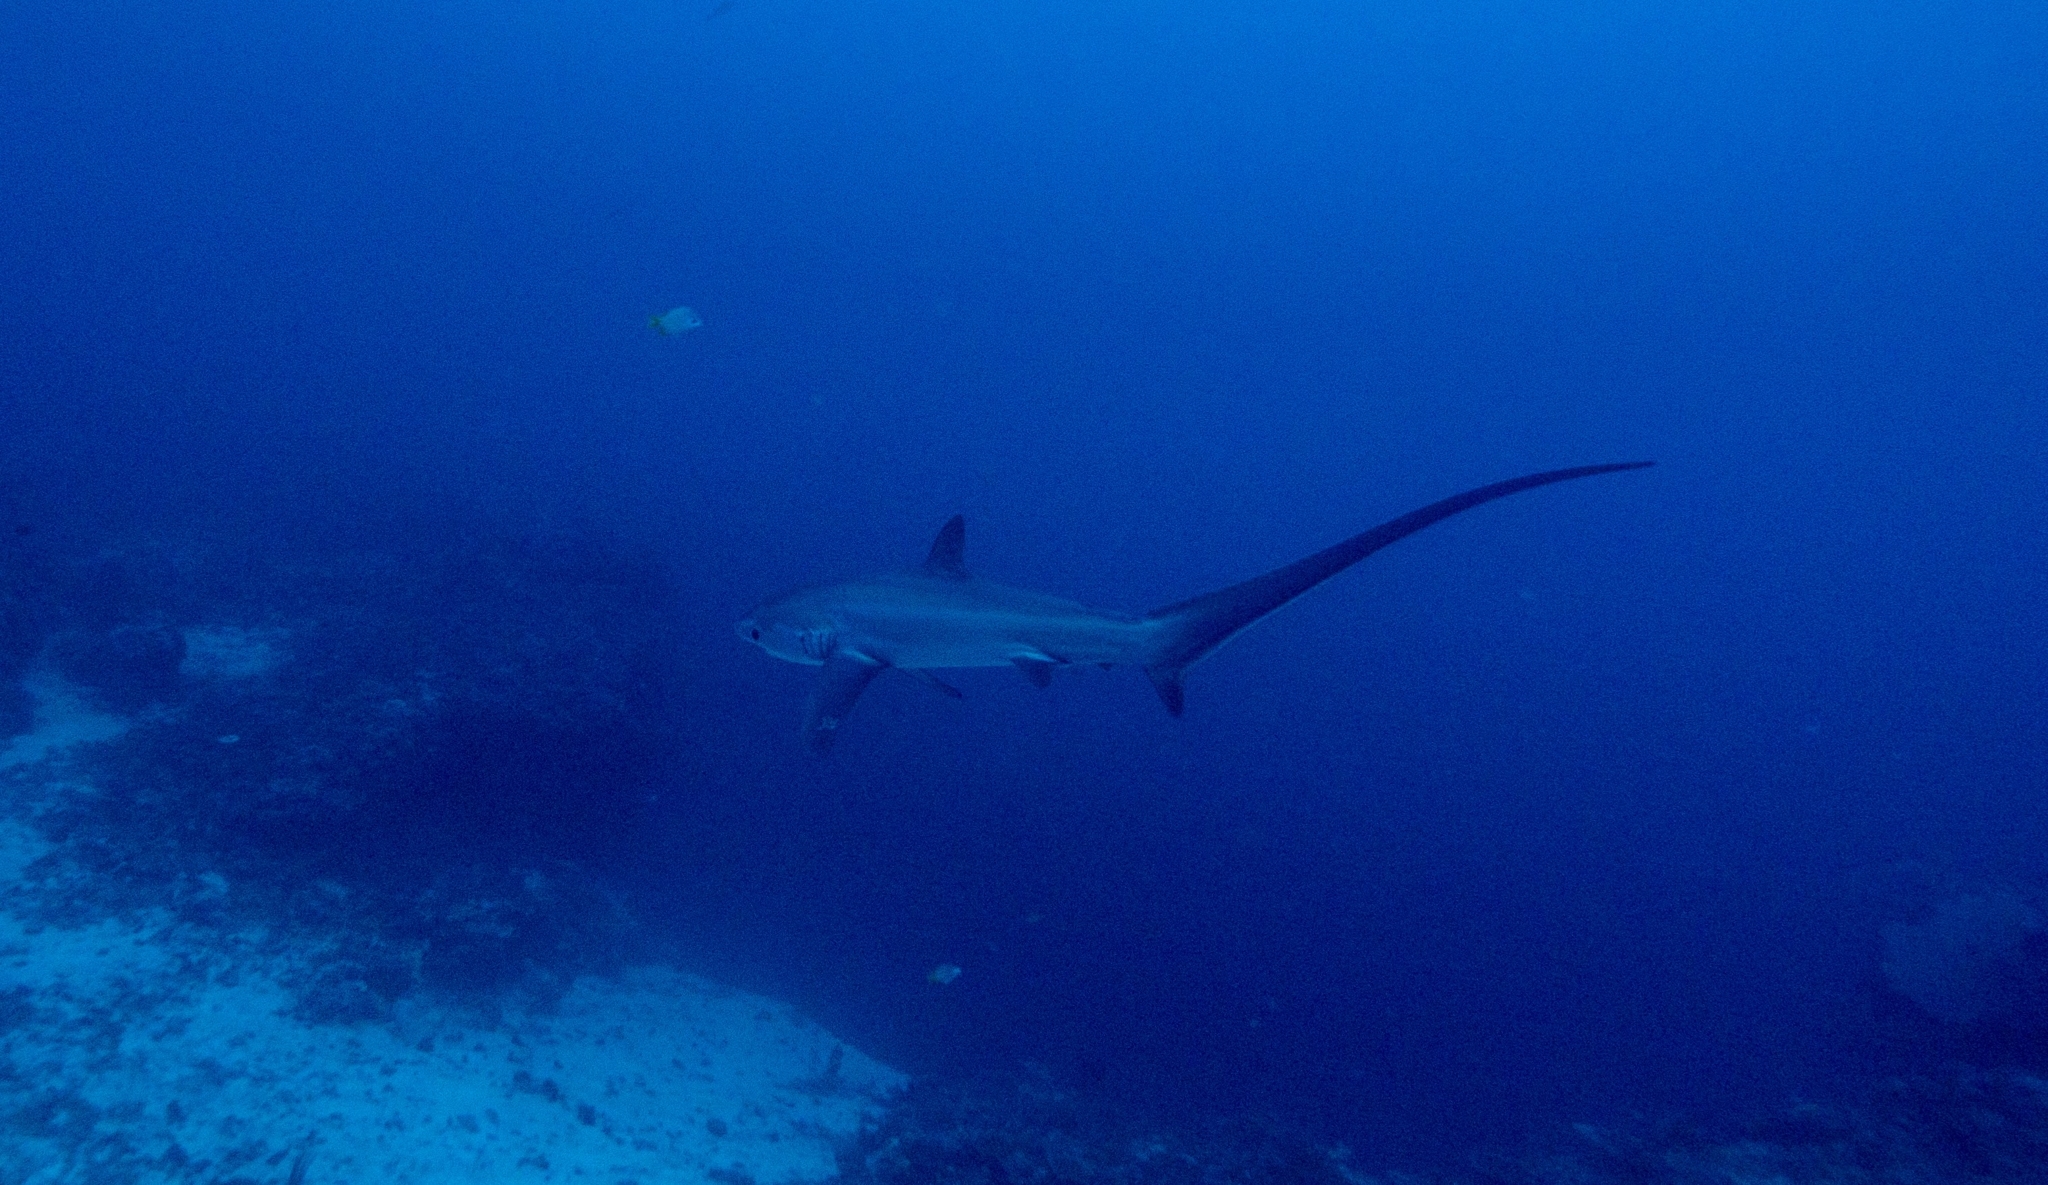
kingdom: Animalia
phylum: Chordata
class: Elasmobranchii
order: Lamniformes
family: Alopiidae
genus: Alopias
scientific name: Alopias pelagicus
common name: Pelagic thresher
